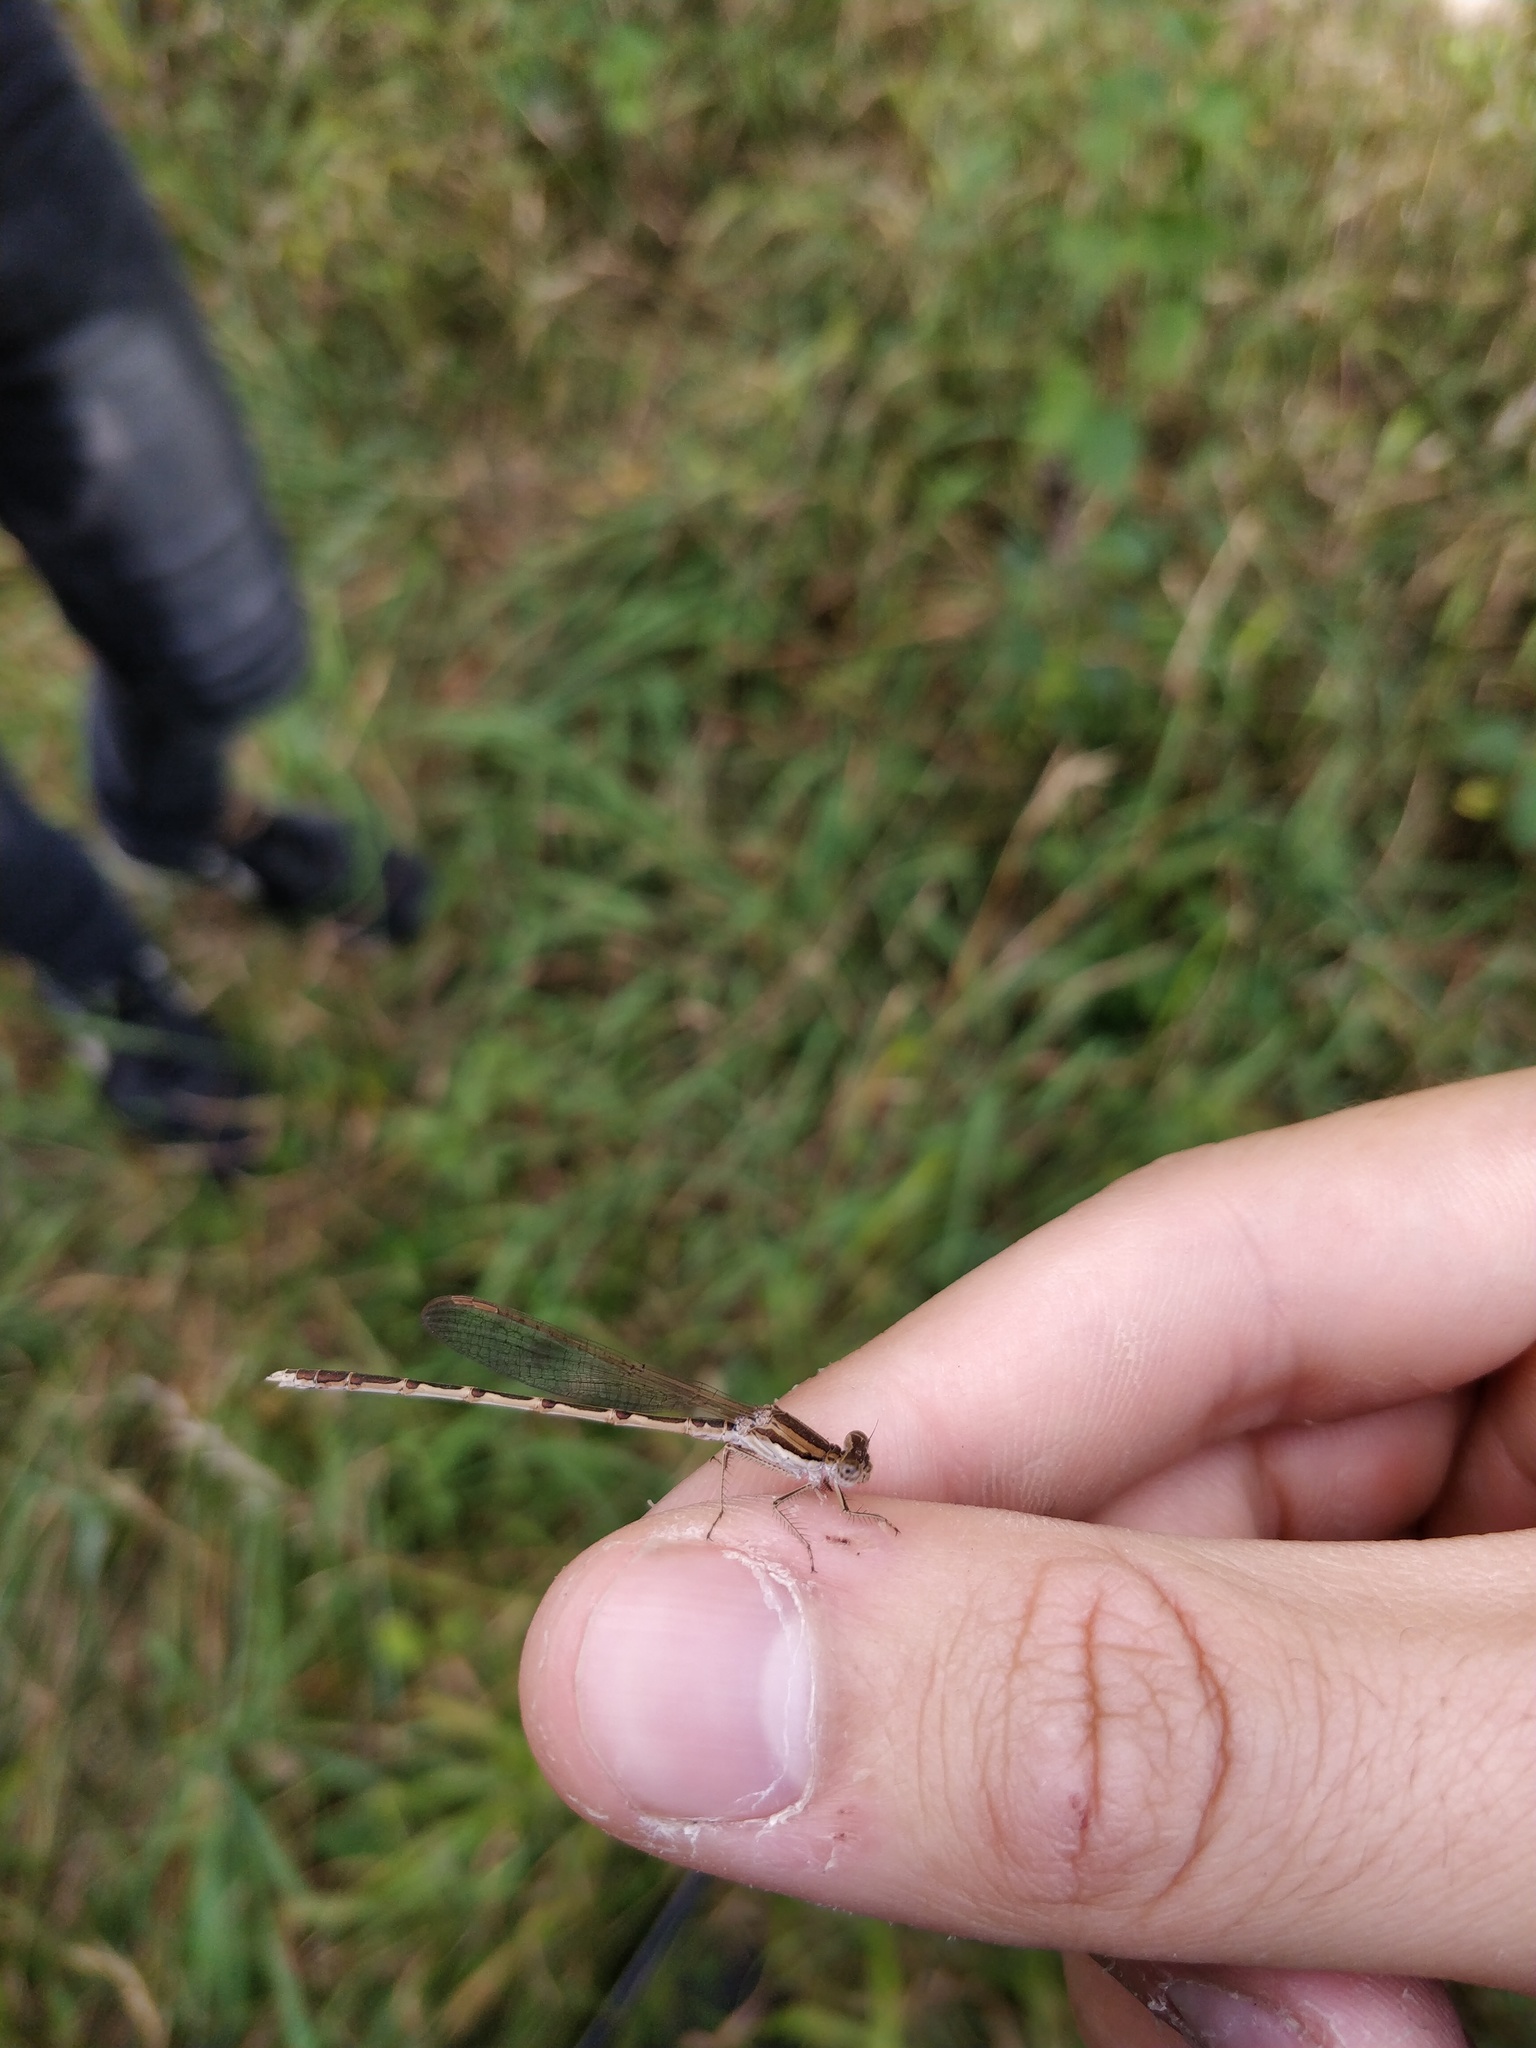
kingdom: Animalia
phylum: Arthropoda
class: Insecta
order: Odonata
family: Lestidae
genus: Sympecma
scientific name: Sympecma fusca
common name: Common winter damsel
